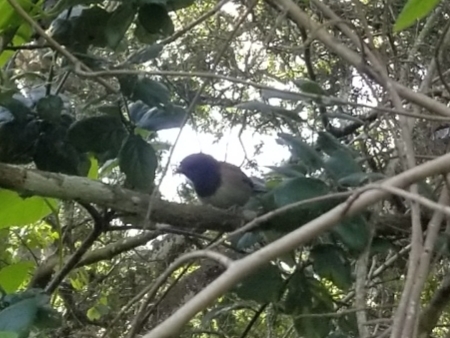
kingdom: Animalia
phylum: Chordata
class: Aves
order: Passeriformes
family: Passerellidae
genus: Junco
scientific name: Junco hyemalis
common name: Dark-eyed junco
